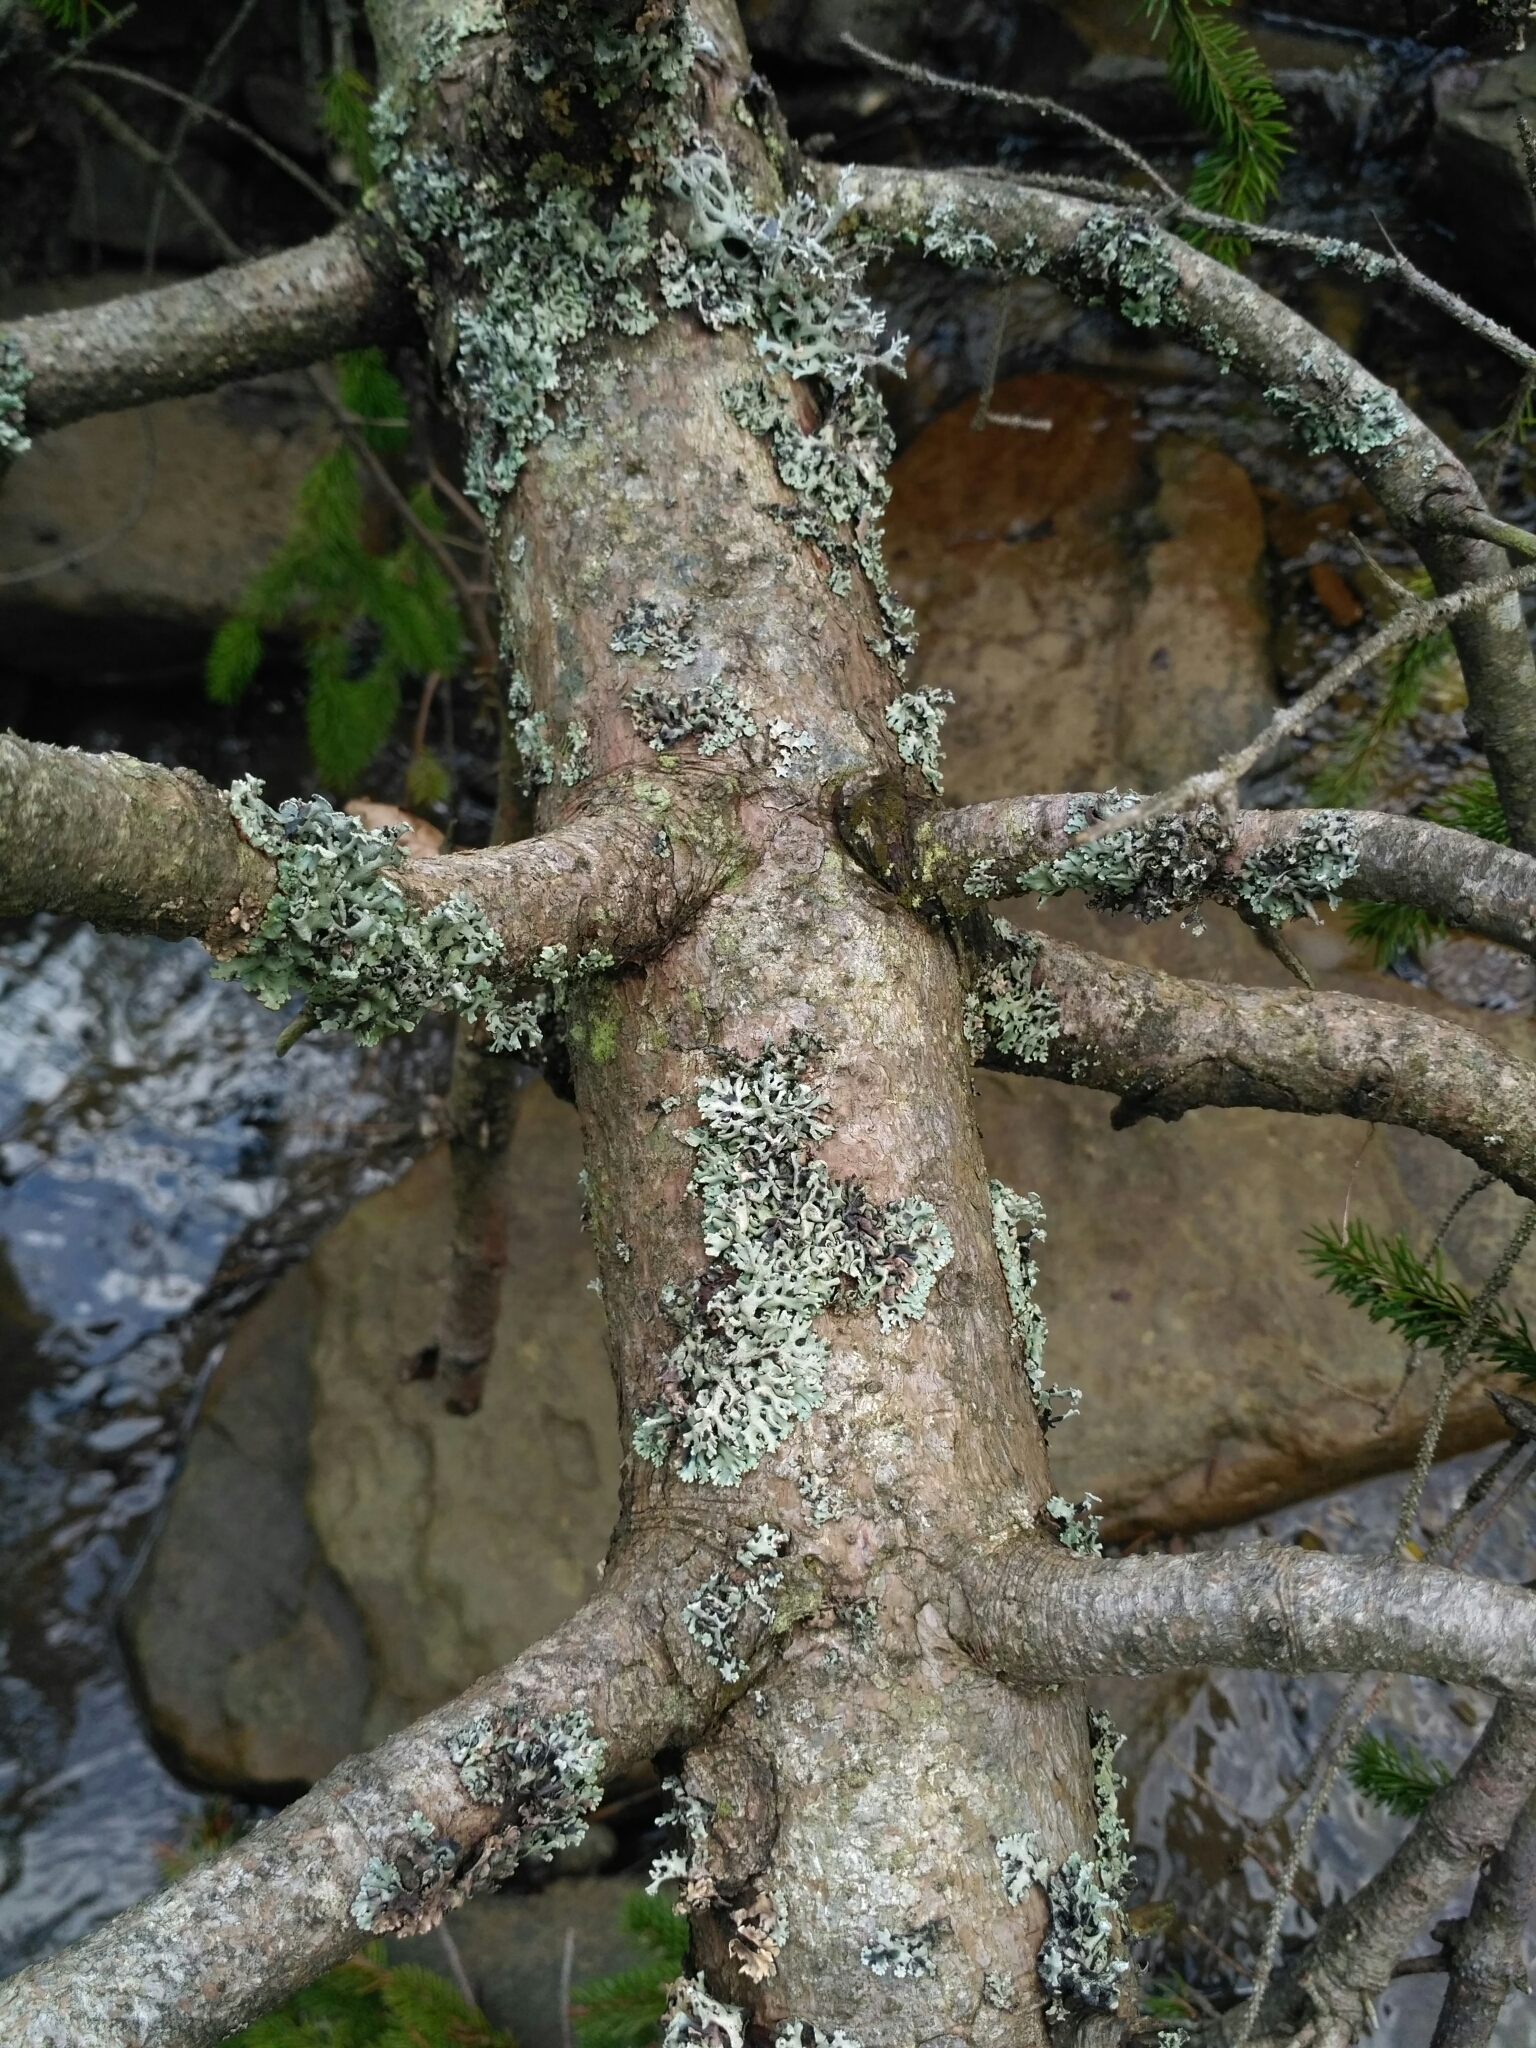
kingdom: Fungi
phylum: Ascomycota
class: Lecanoromycetes
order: Lecanorales
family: Parmeliaceae
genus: Hypogymnia
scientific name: Hypogymnia physodes
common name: Dark crottle
